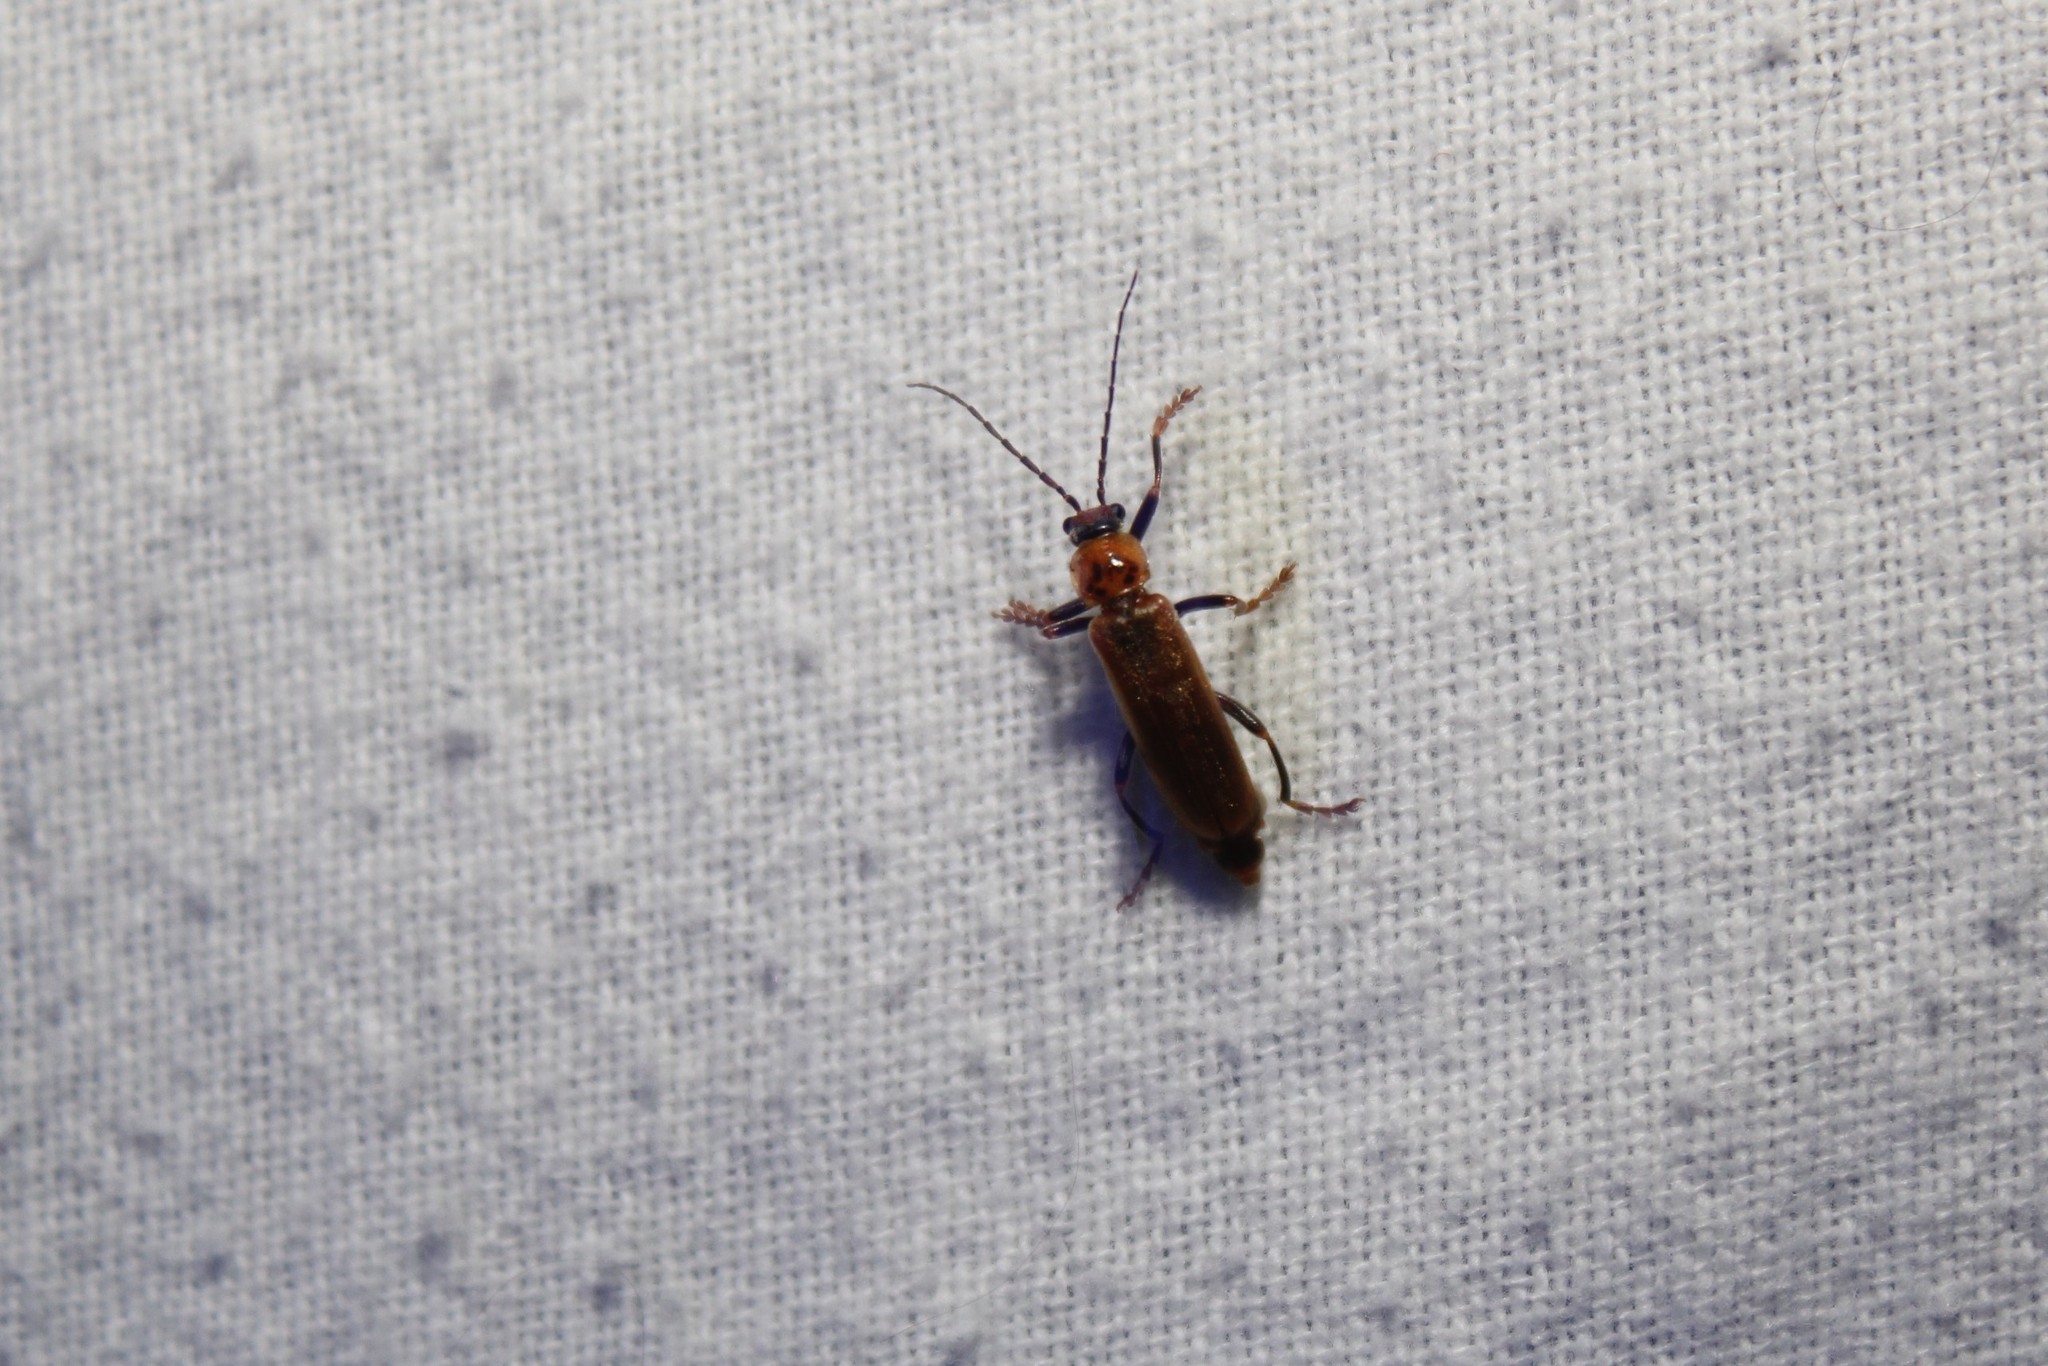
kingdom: Animalia
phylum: Arthropoda
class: Insecta
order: Coleoptera
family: Cantharidae
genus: Cantharis
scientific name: Cantharis rufa
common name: Red-spotted soldier beetle
